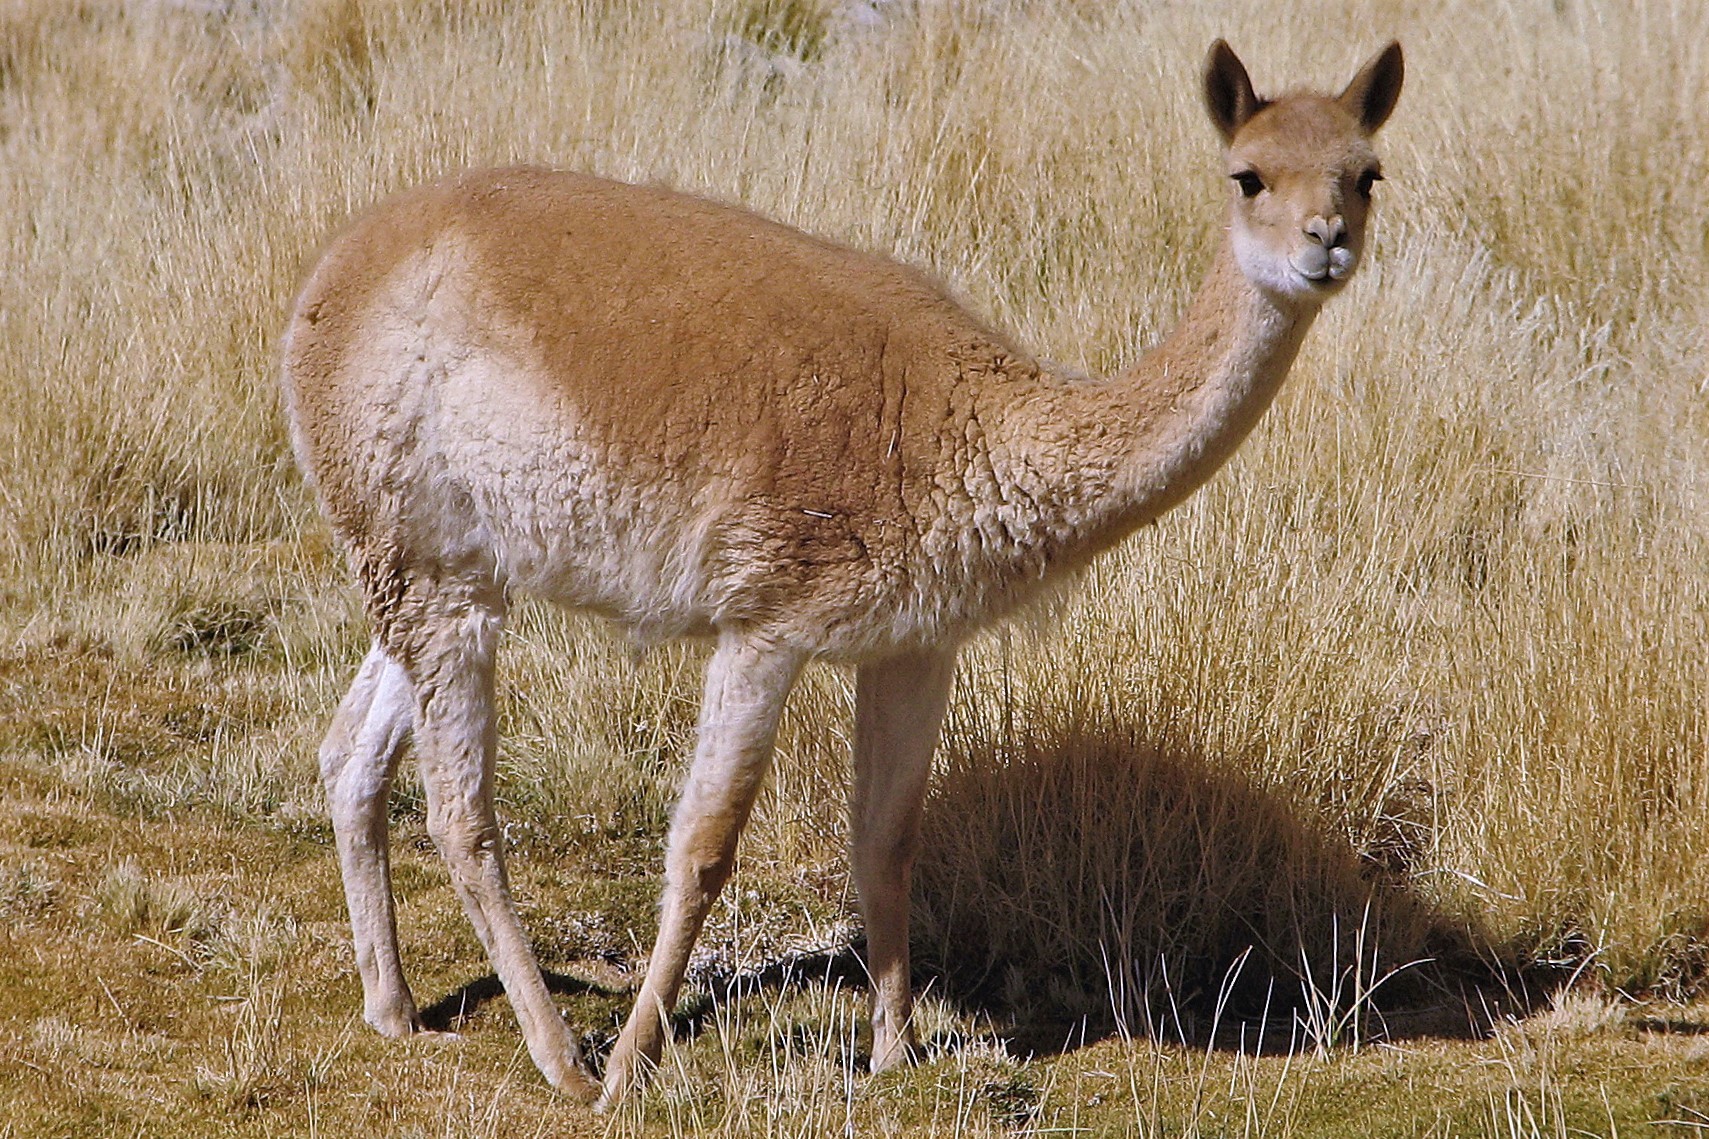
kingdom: Animalia
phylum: Chordata
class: Mammalia
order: Artiodactyla
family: Camelidae
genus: Vicugna
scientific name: Vicugna vicugna
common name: Vicugna
